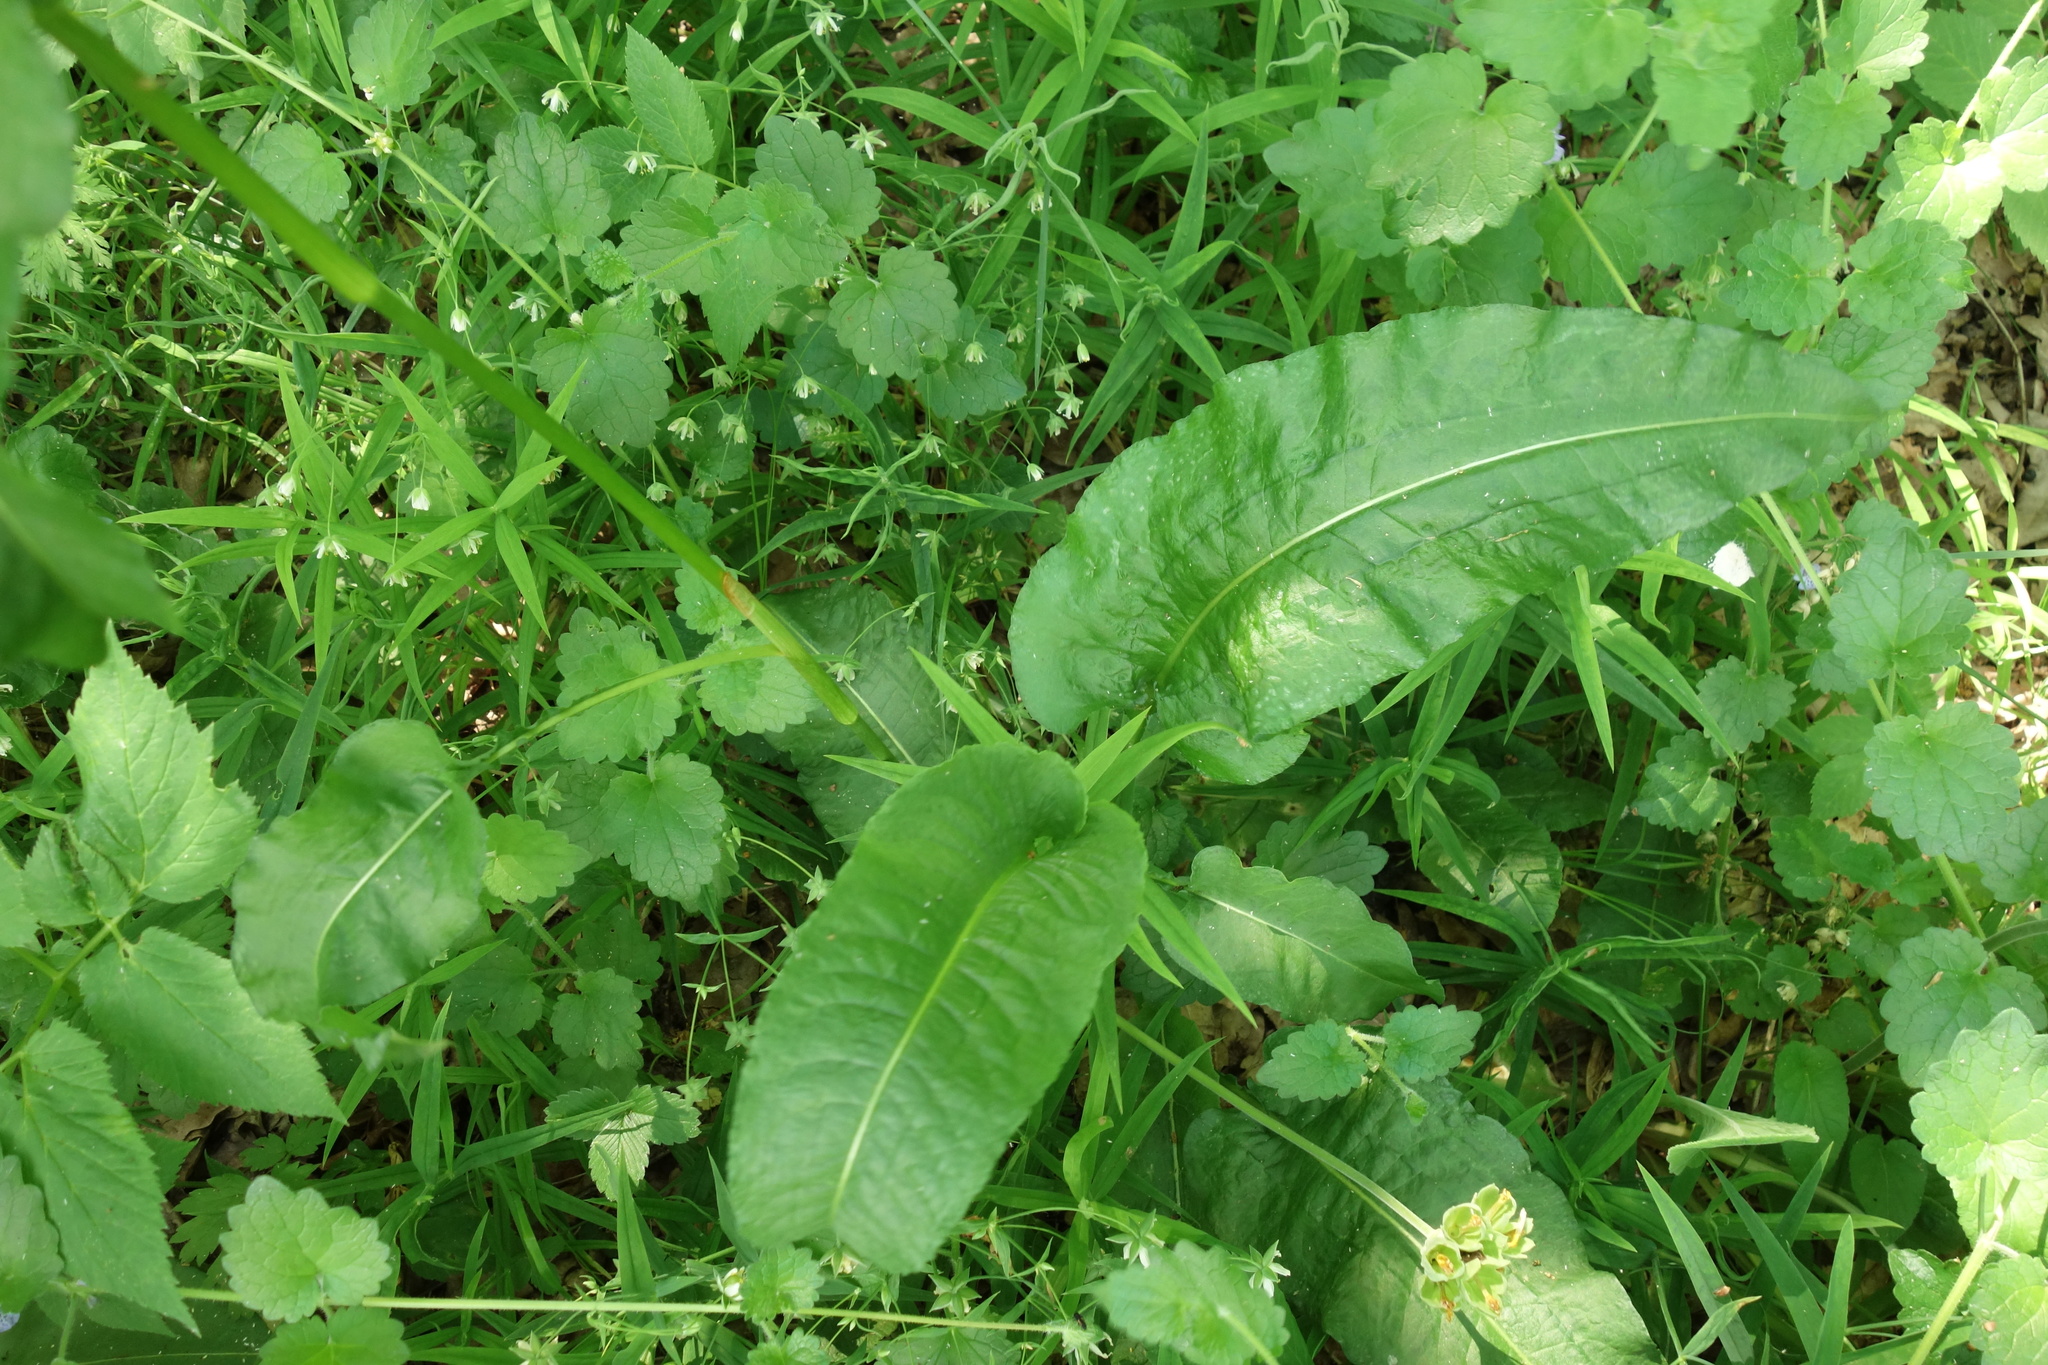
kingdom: Plantae
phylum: Tracheophyta
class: Magnoliopsida
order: Caryophyllales
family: Polygonaceae
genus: Bistorta
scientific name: Bistorta officinalis
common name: Common bistort
